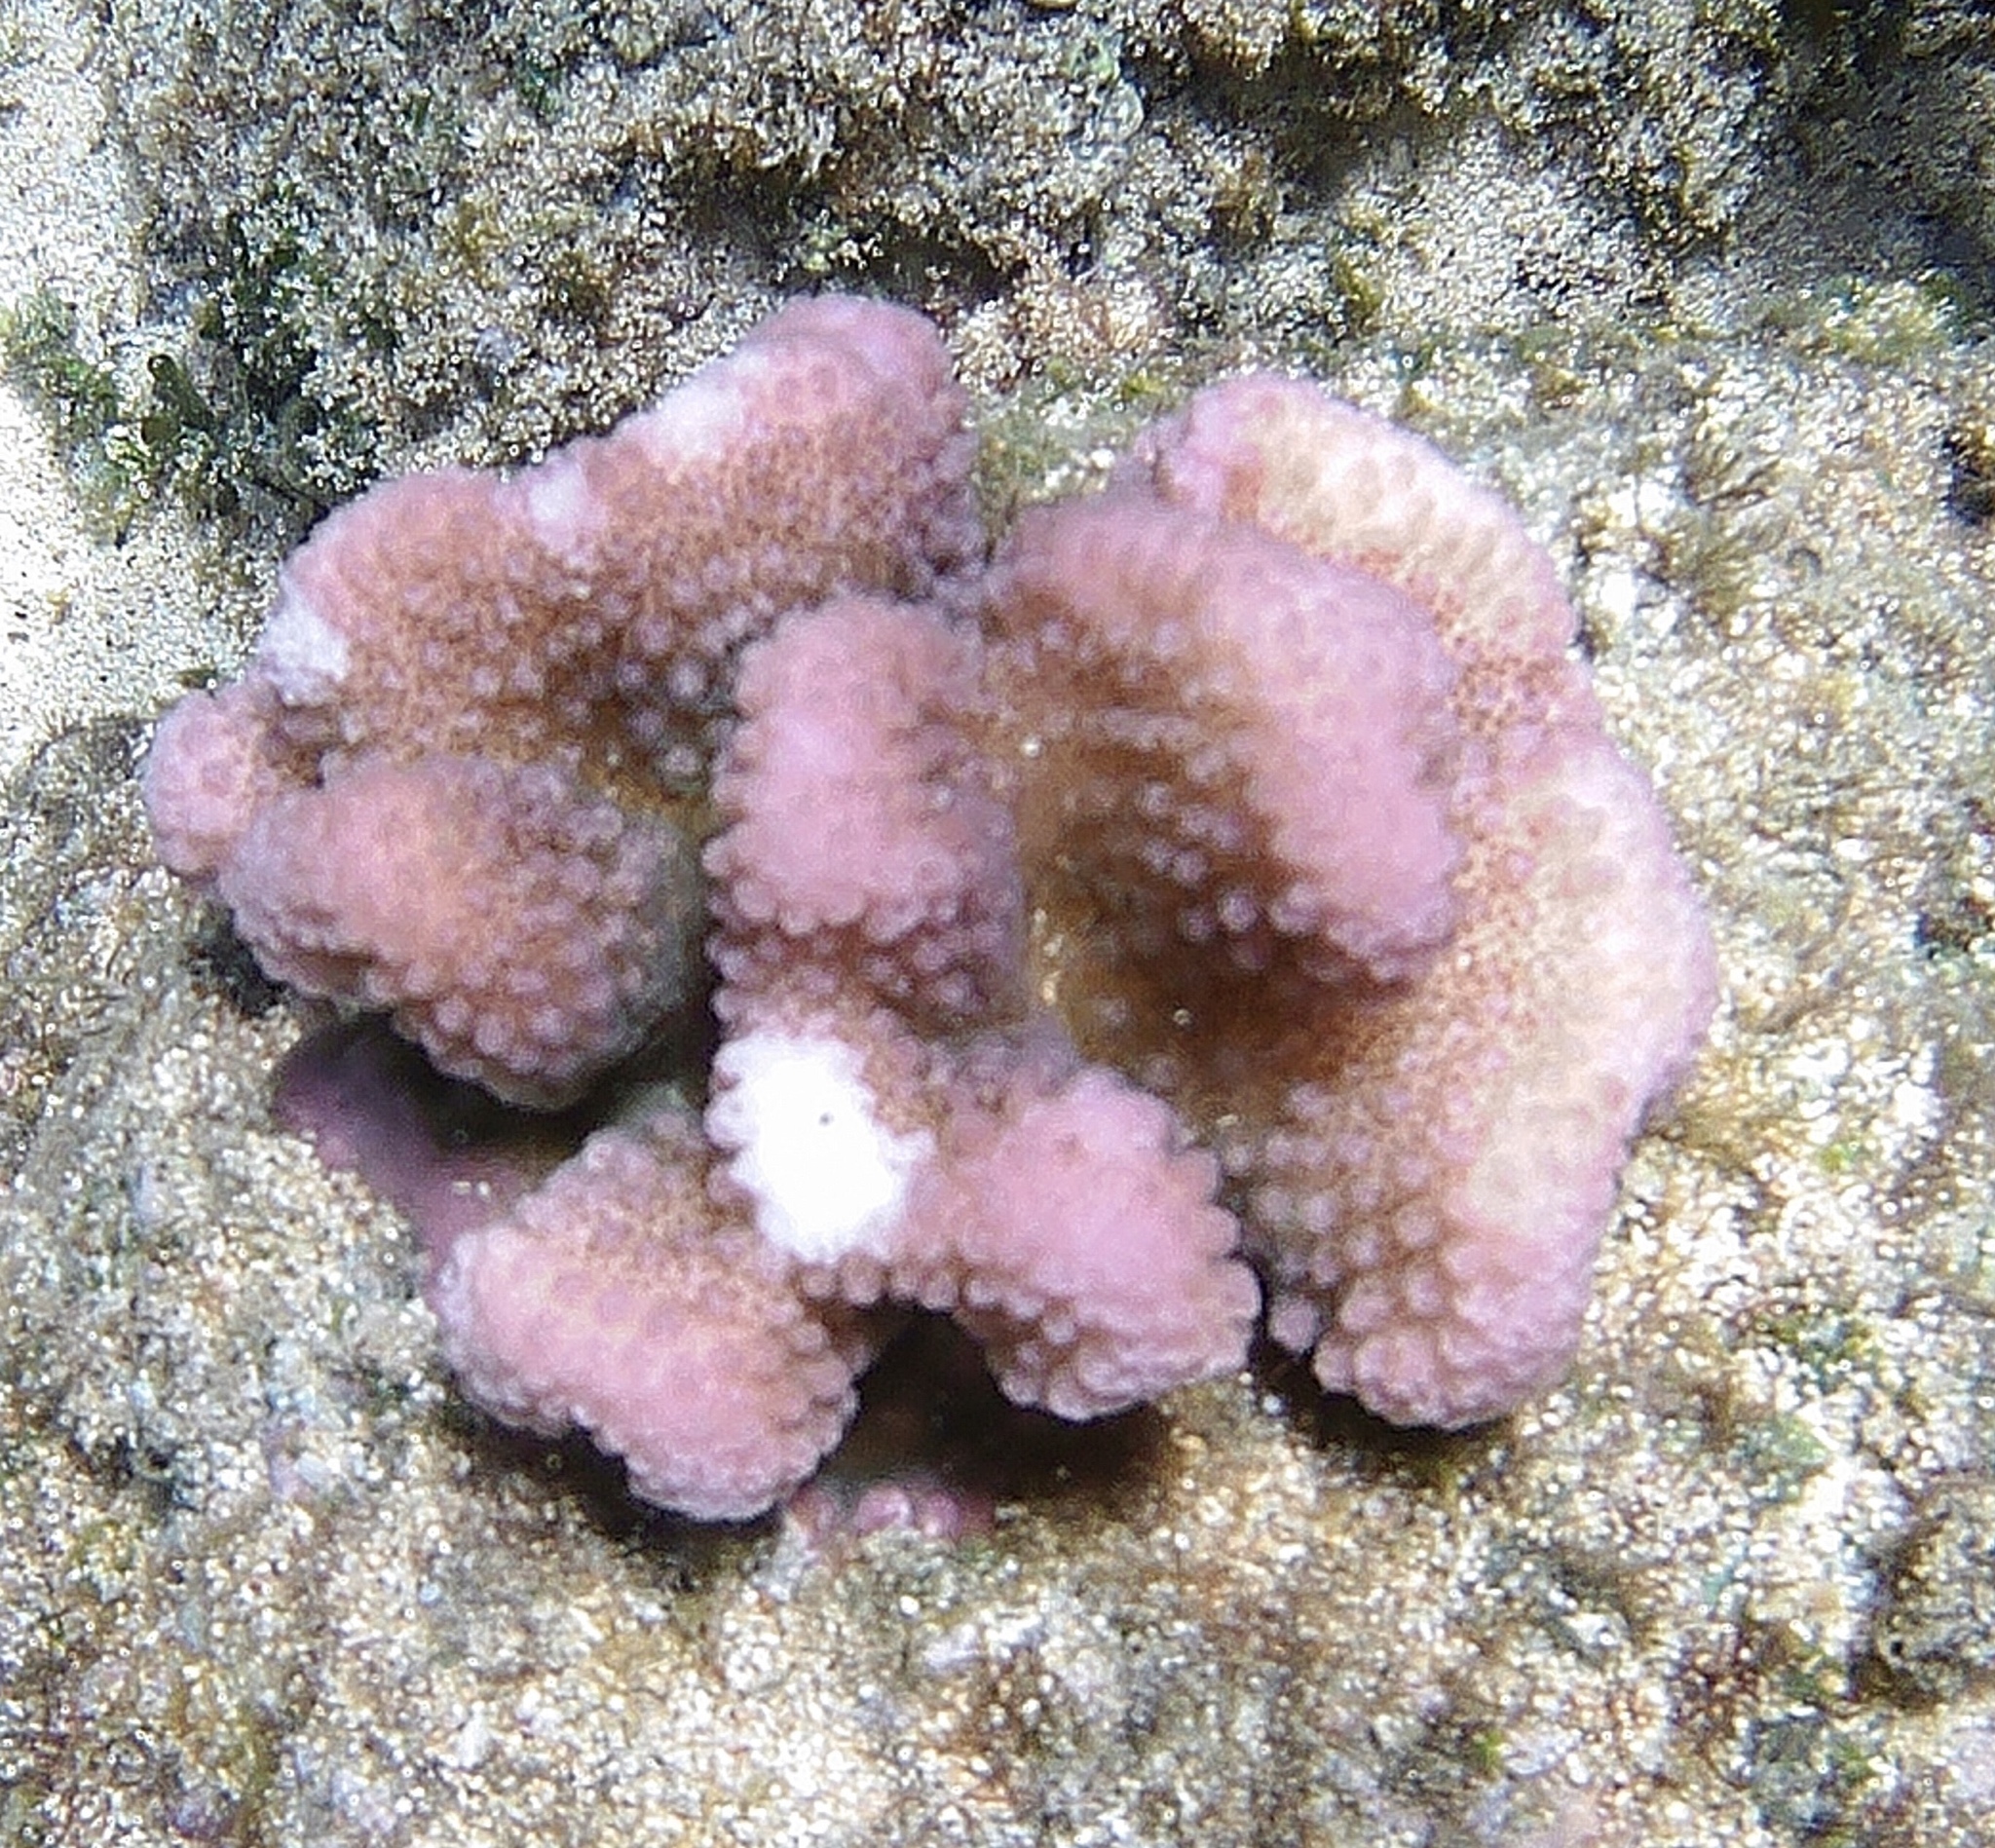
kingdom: Animalia
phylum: Cnidaria
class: Anthozoa
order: Scleractinia
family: Pocilloporidae
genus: Pocillopora
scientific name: Pocillopora meandrina
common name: Cauliflower coral
